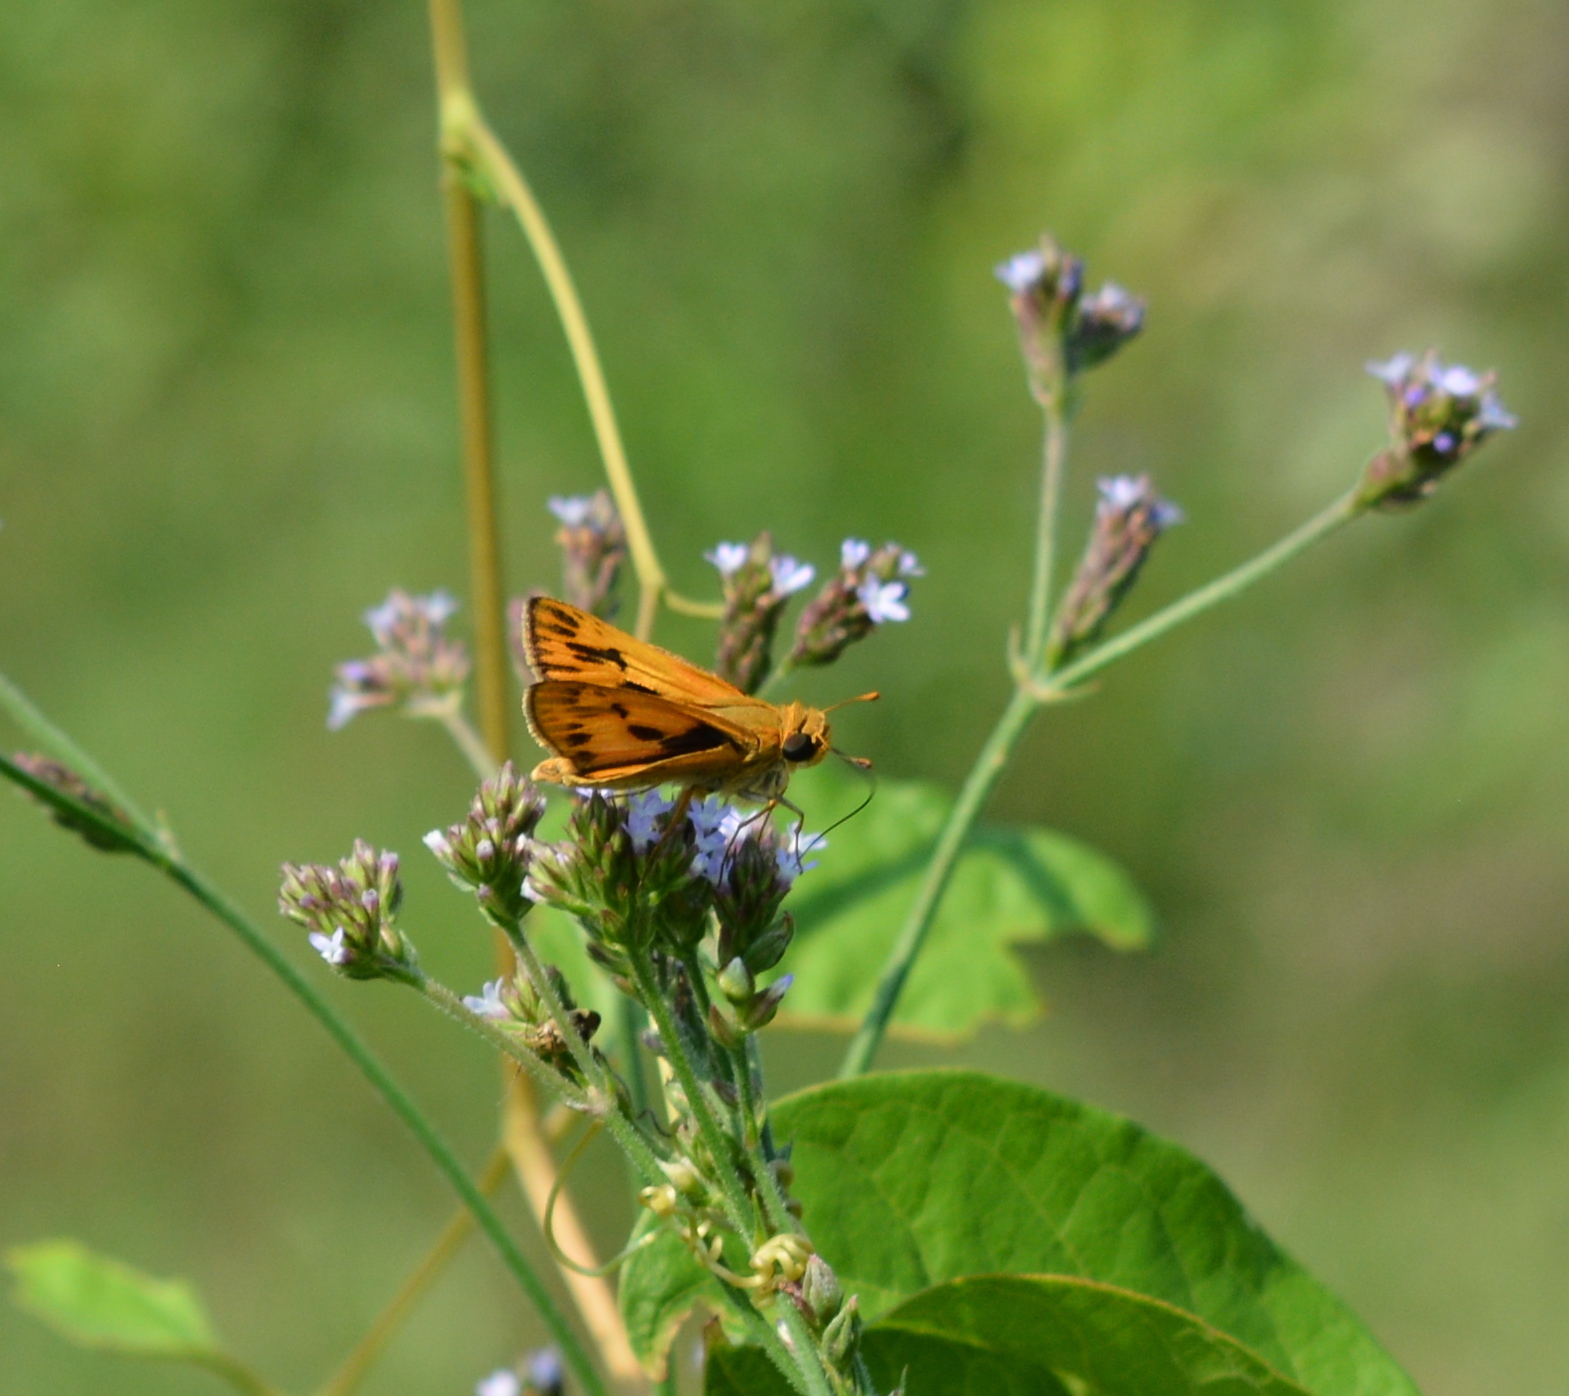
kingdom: Animalia
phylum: Arthropoda
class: Insecta
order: Lepidoptera
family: Hesperiidae
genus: Hylephila
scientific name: Hylephila phyleus
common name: Fiery skipper
